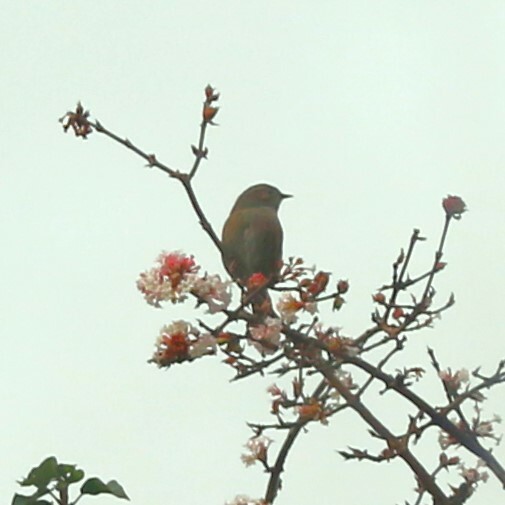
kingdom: Animalia
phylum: Chordata
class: Aves
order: Passeriformes
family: Prunellidae
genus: Prunella
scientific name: Prunella modularis
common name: Dunnock
